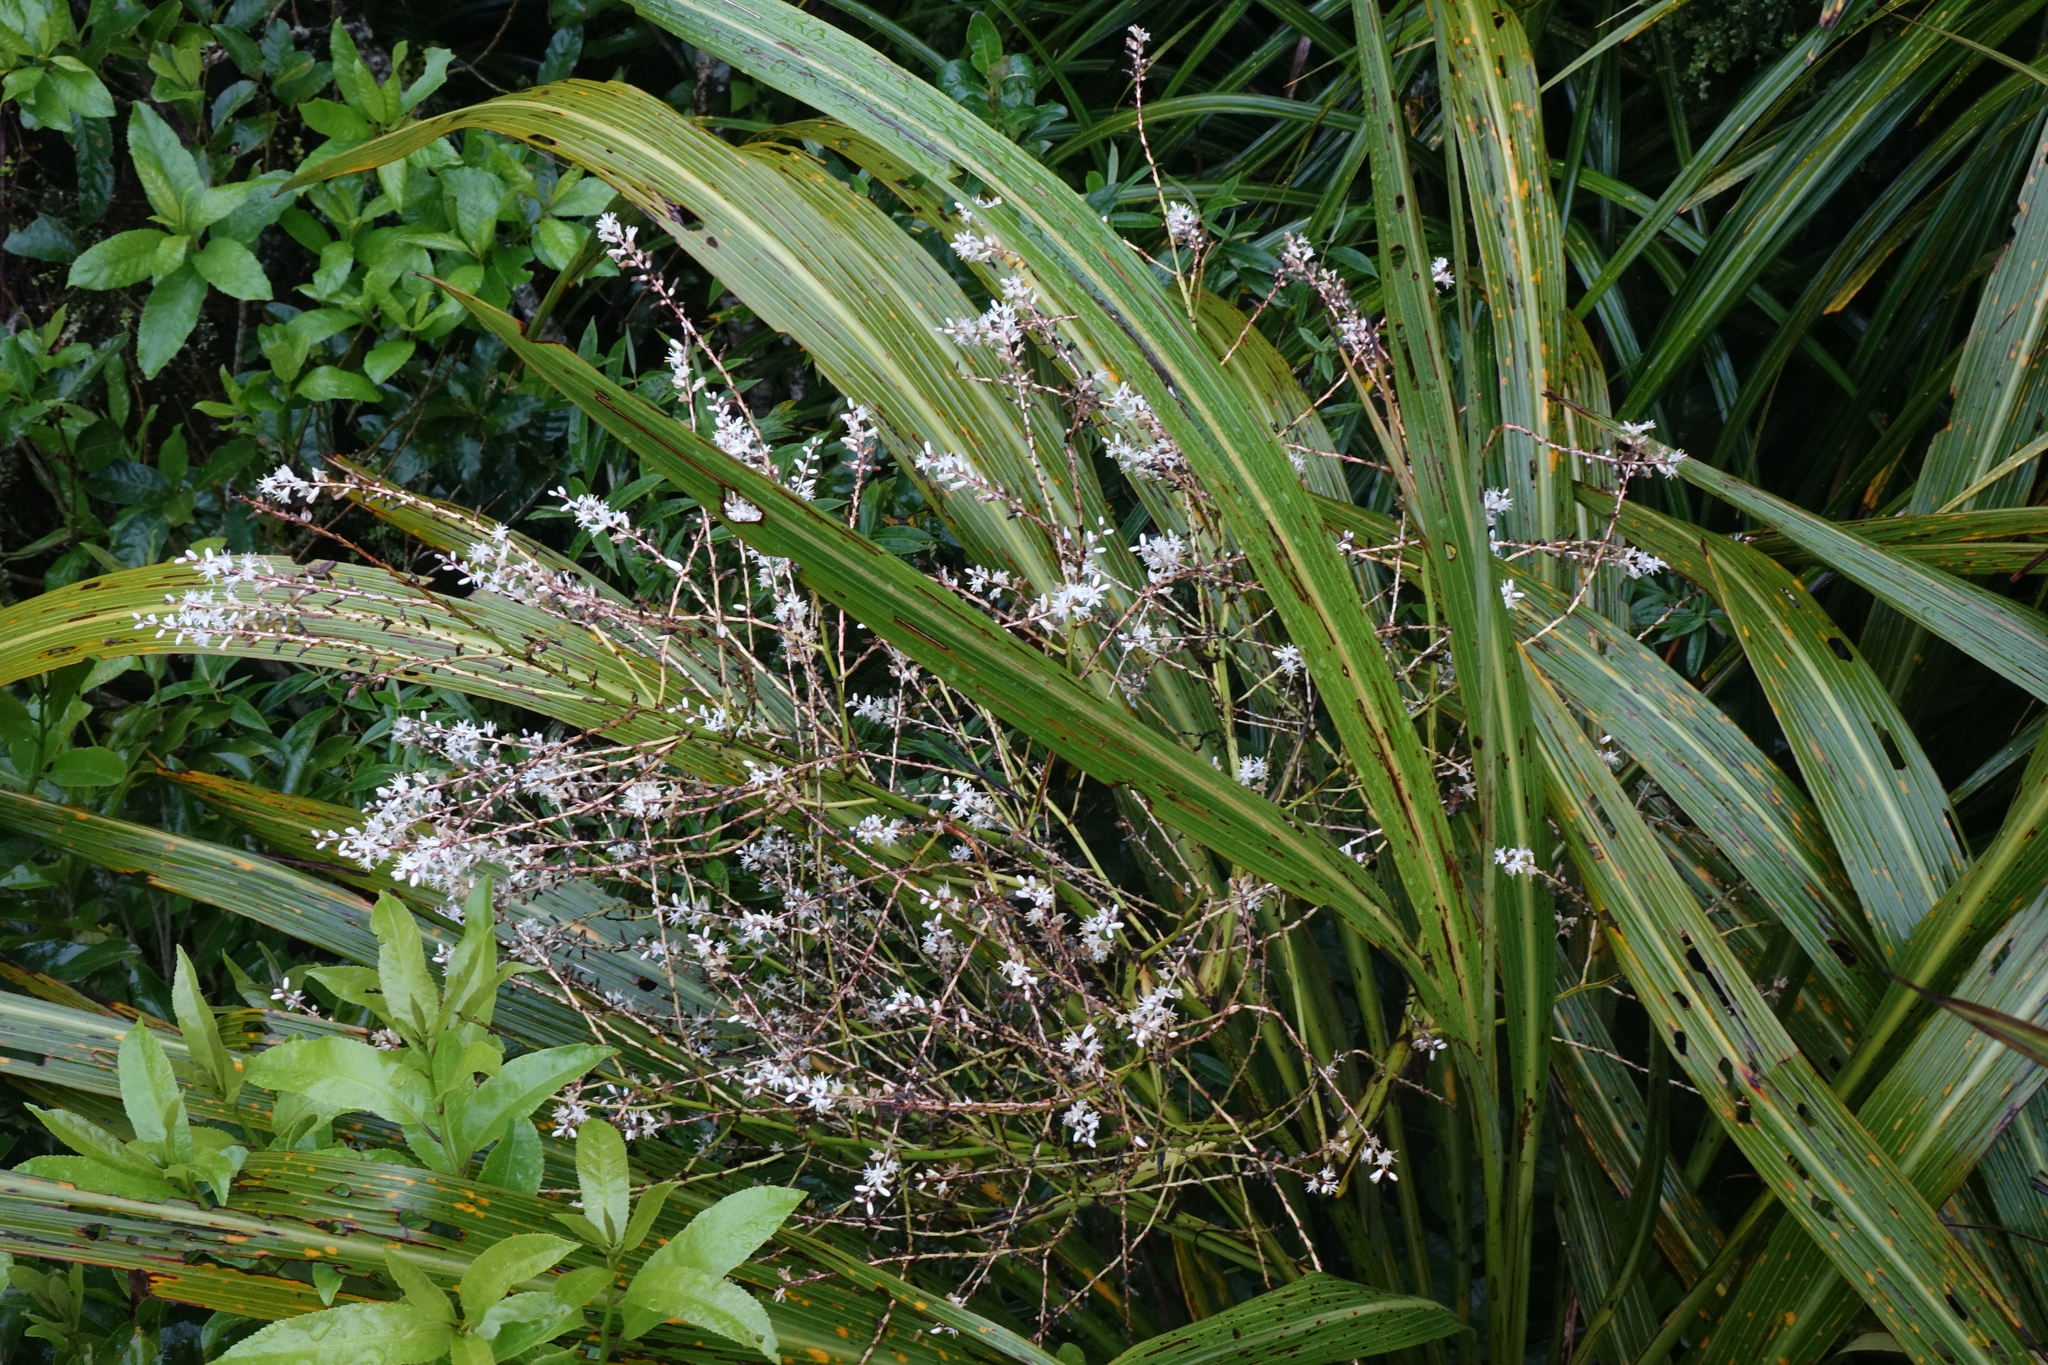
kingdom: Plantae
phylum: Tracheophyta
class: Liliopsida
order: Asparagales
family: Asparagaceae
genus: Cordyline
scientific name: Cordyline banksii
